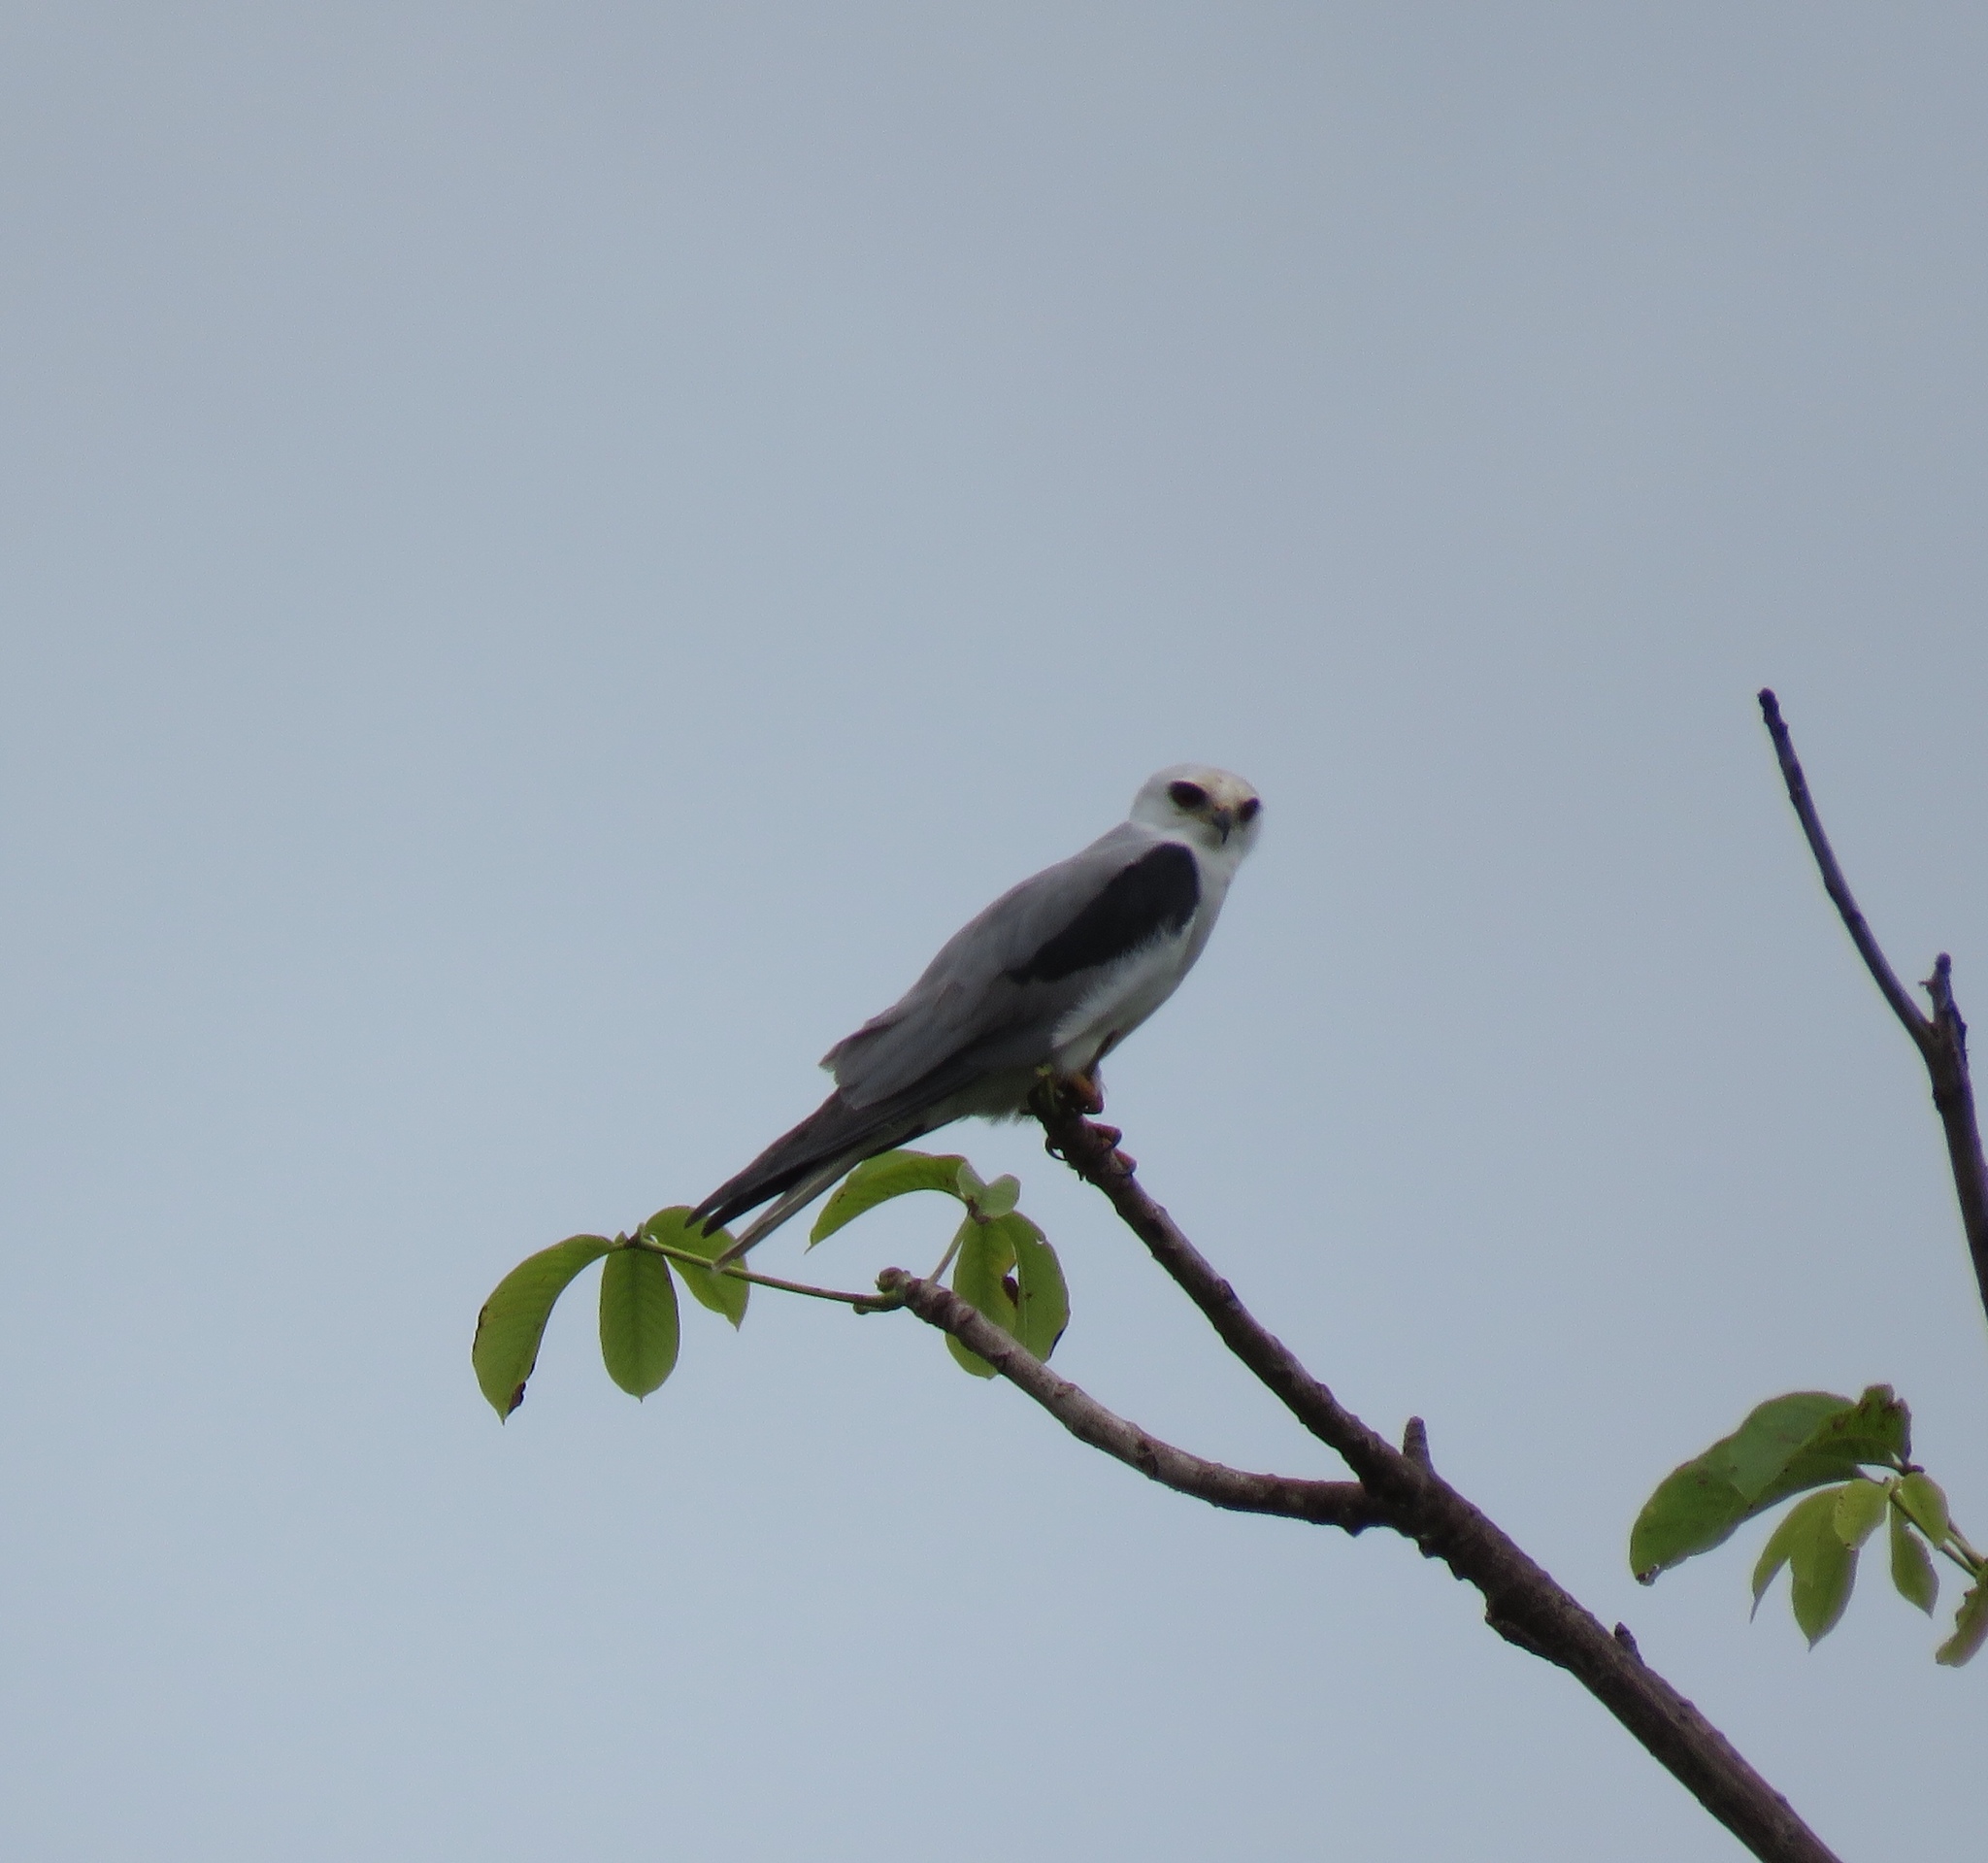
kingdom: Animalia
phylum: Chordata
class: Aves
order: Accipitriformes
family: Accipitridae
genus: Elanus
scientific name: Elanus leucurus
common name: White-tailed kite
